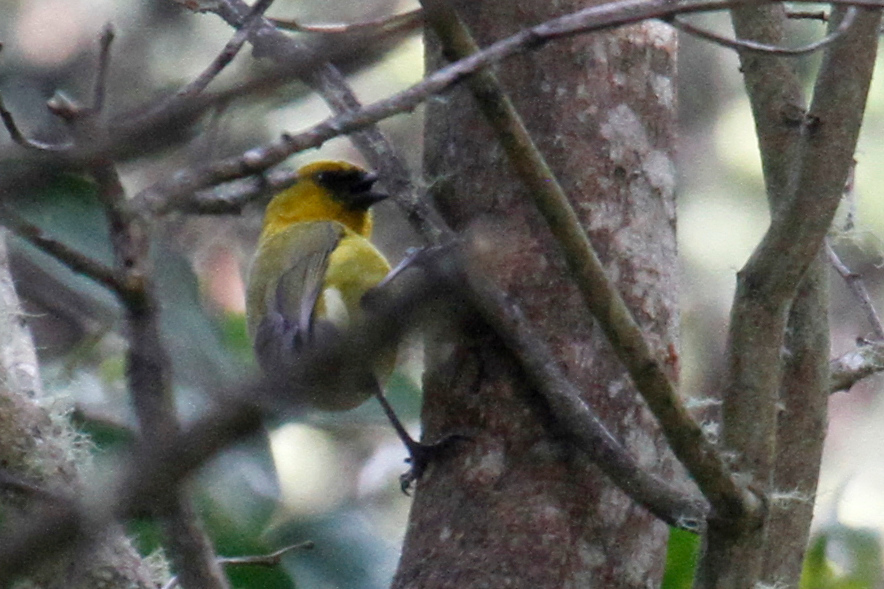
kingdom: Animalia
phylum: Chordata
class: Aves
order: Passeriformes
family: Fringillidae
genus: Hemignathus
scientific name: Hemignathus wilsoni
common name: Akiapolaau
